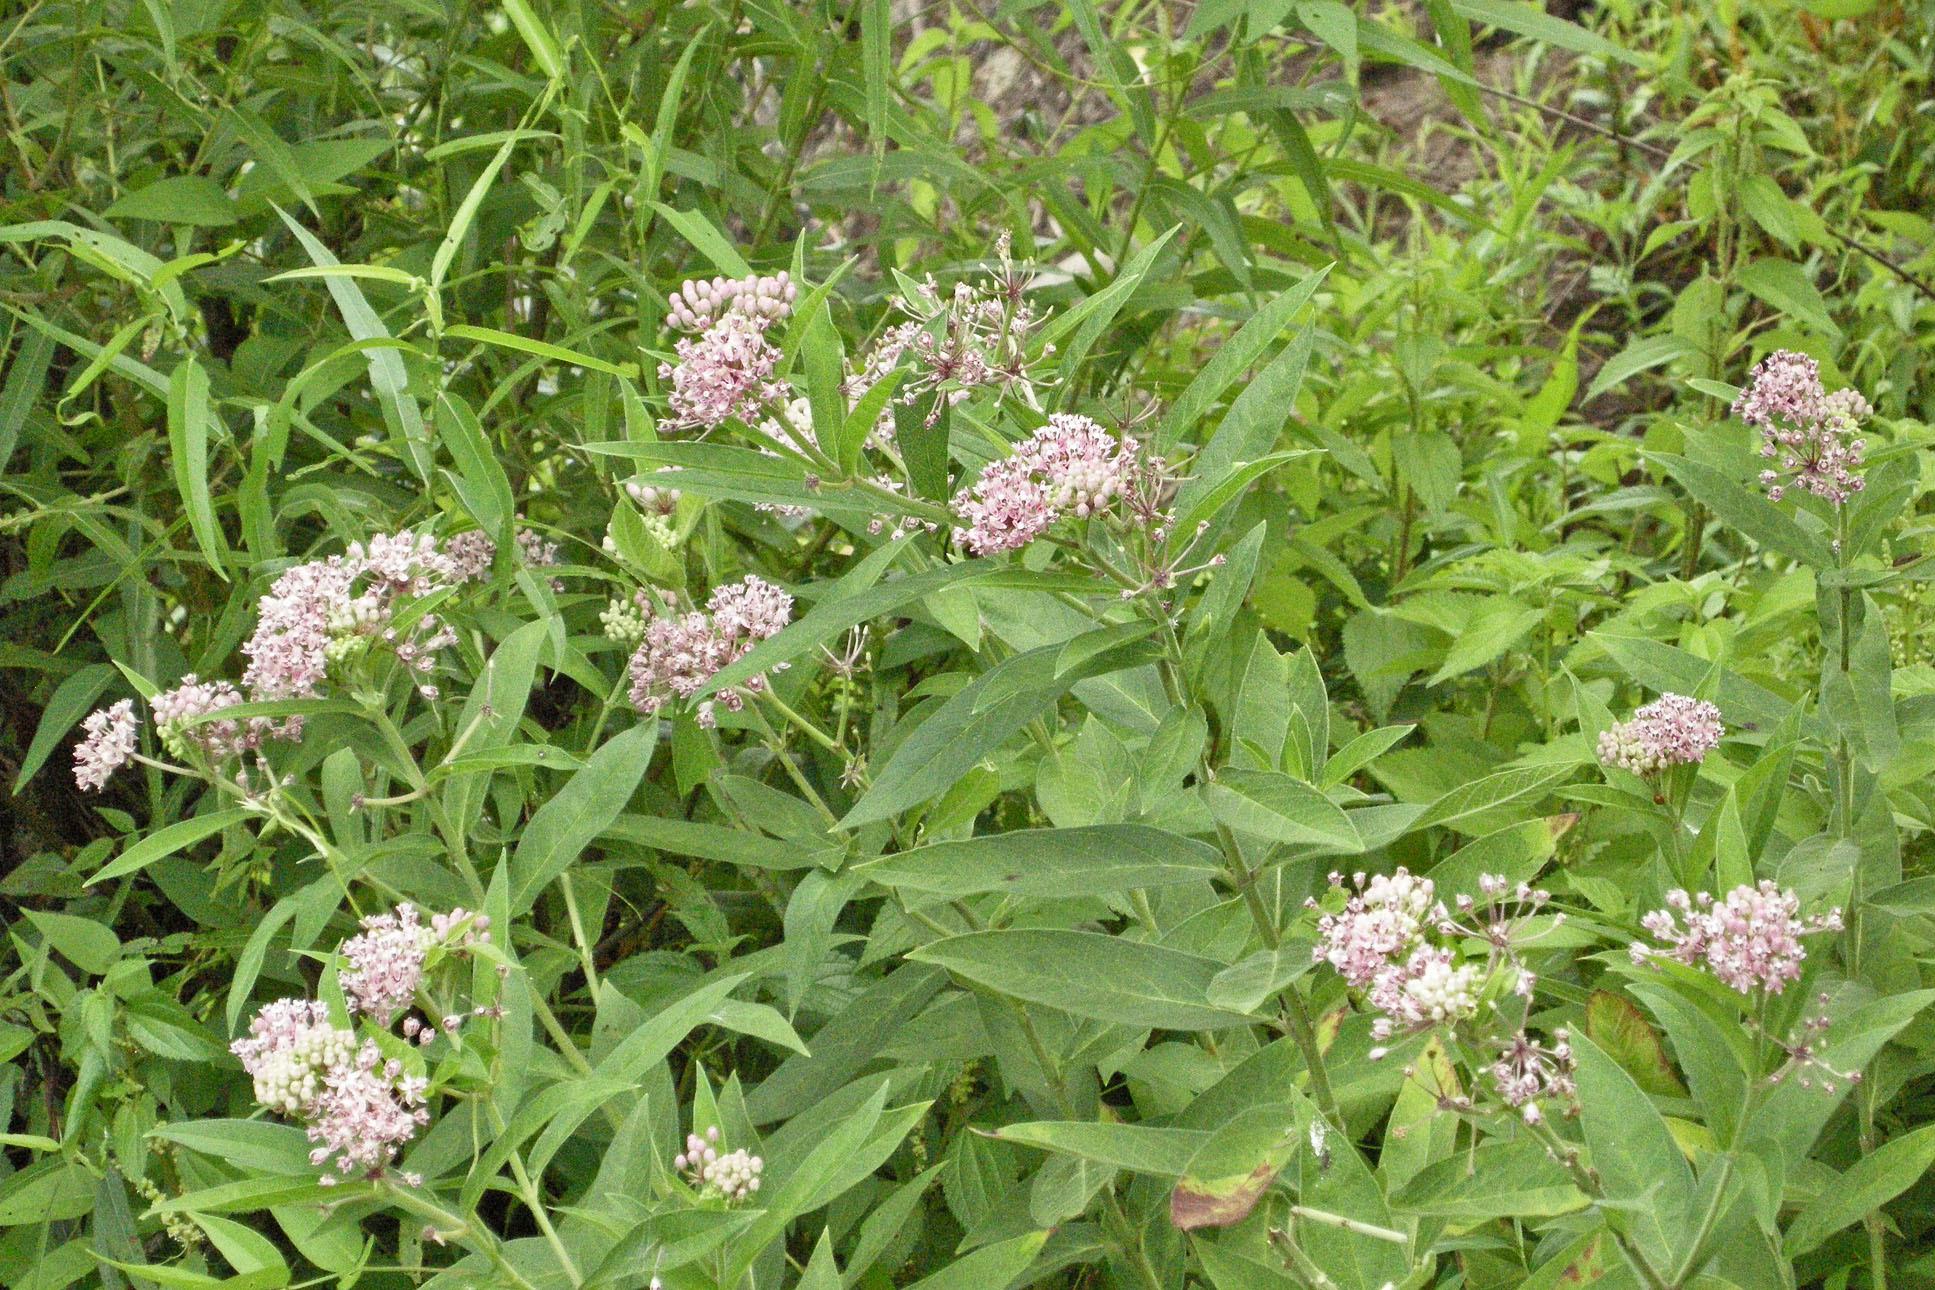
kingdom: Plantae
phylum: Tracheophyta
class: Magnoliopsida
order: Gentianales
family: Apocynaceae
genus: Asclepias
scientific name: Asclepias incarnata
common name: Swamp milkweed
